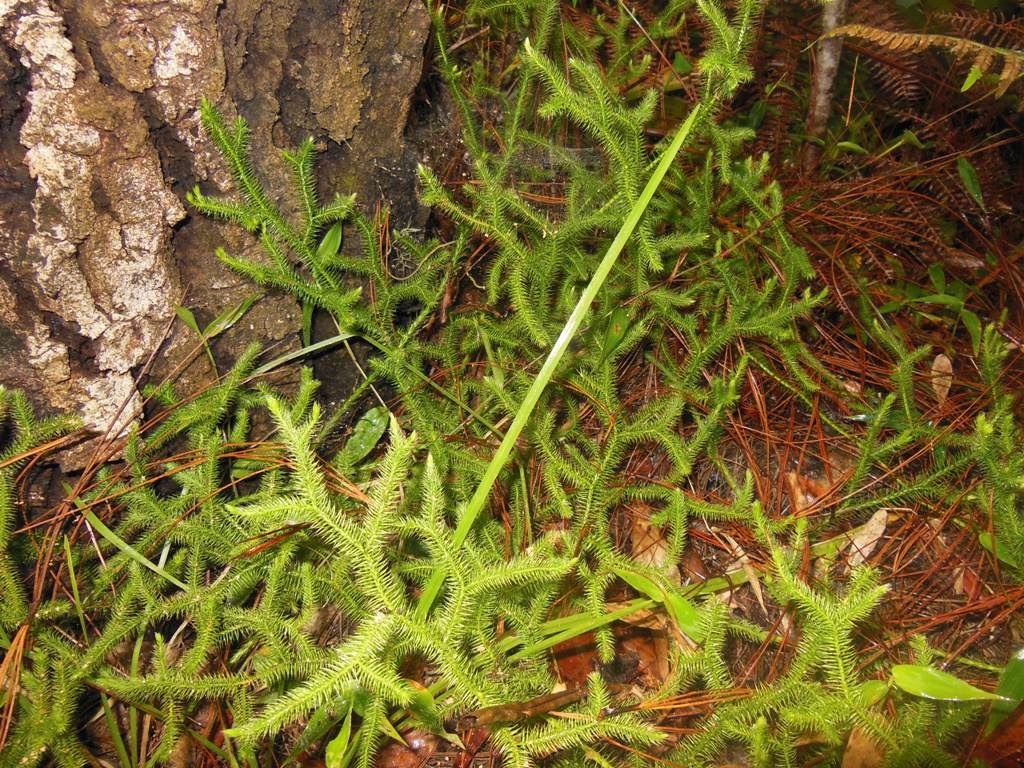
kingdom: Plantae
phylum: Tracheophyta
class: Lycopodiopsida
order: Lycopodiales
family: Lycopodiaceae
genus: Lycopodium
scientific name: Lycopodium clavatum
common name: Stag's-horn clubmoss
